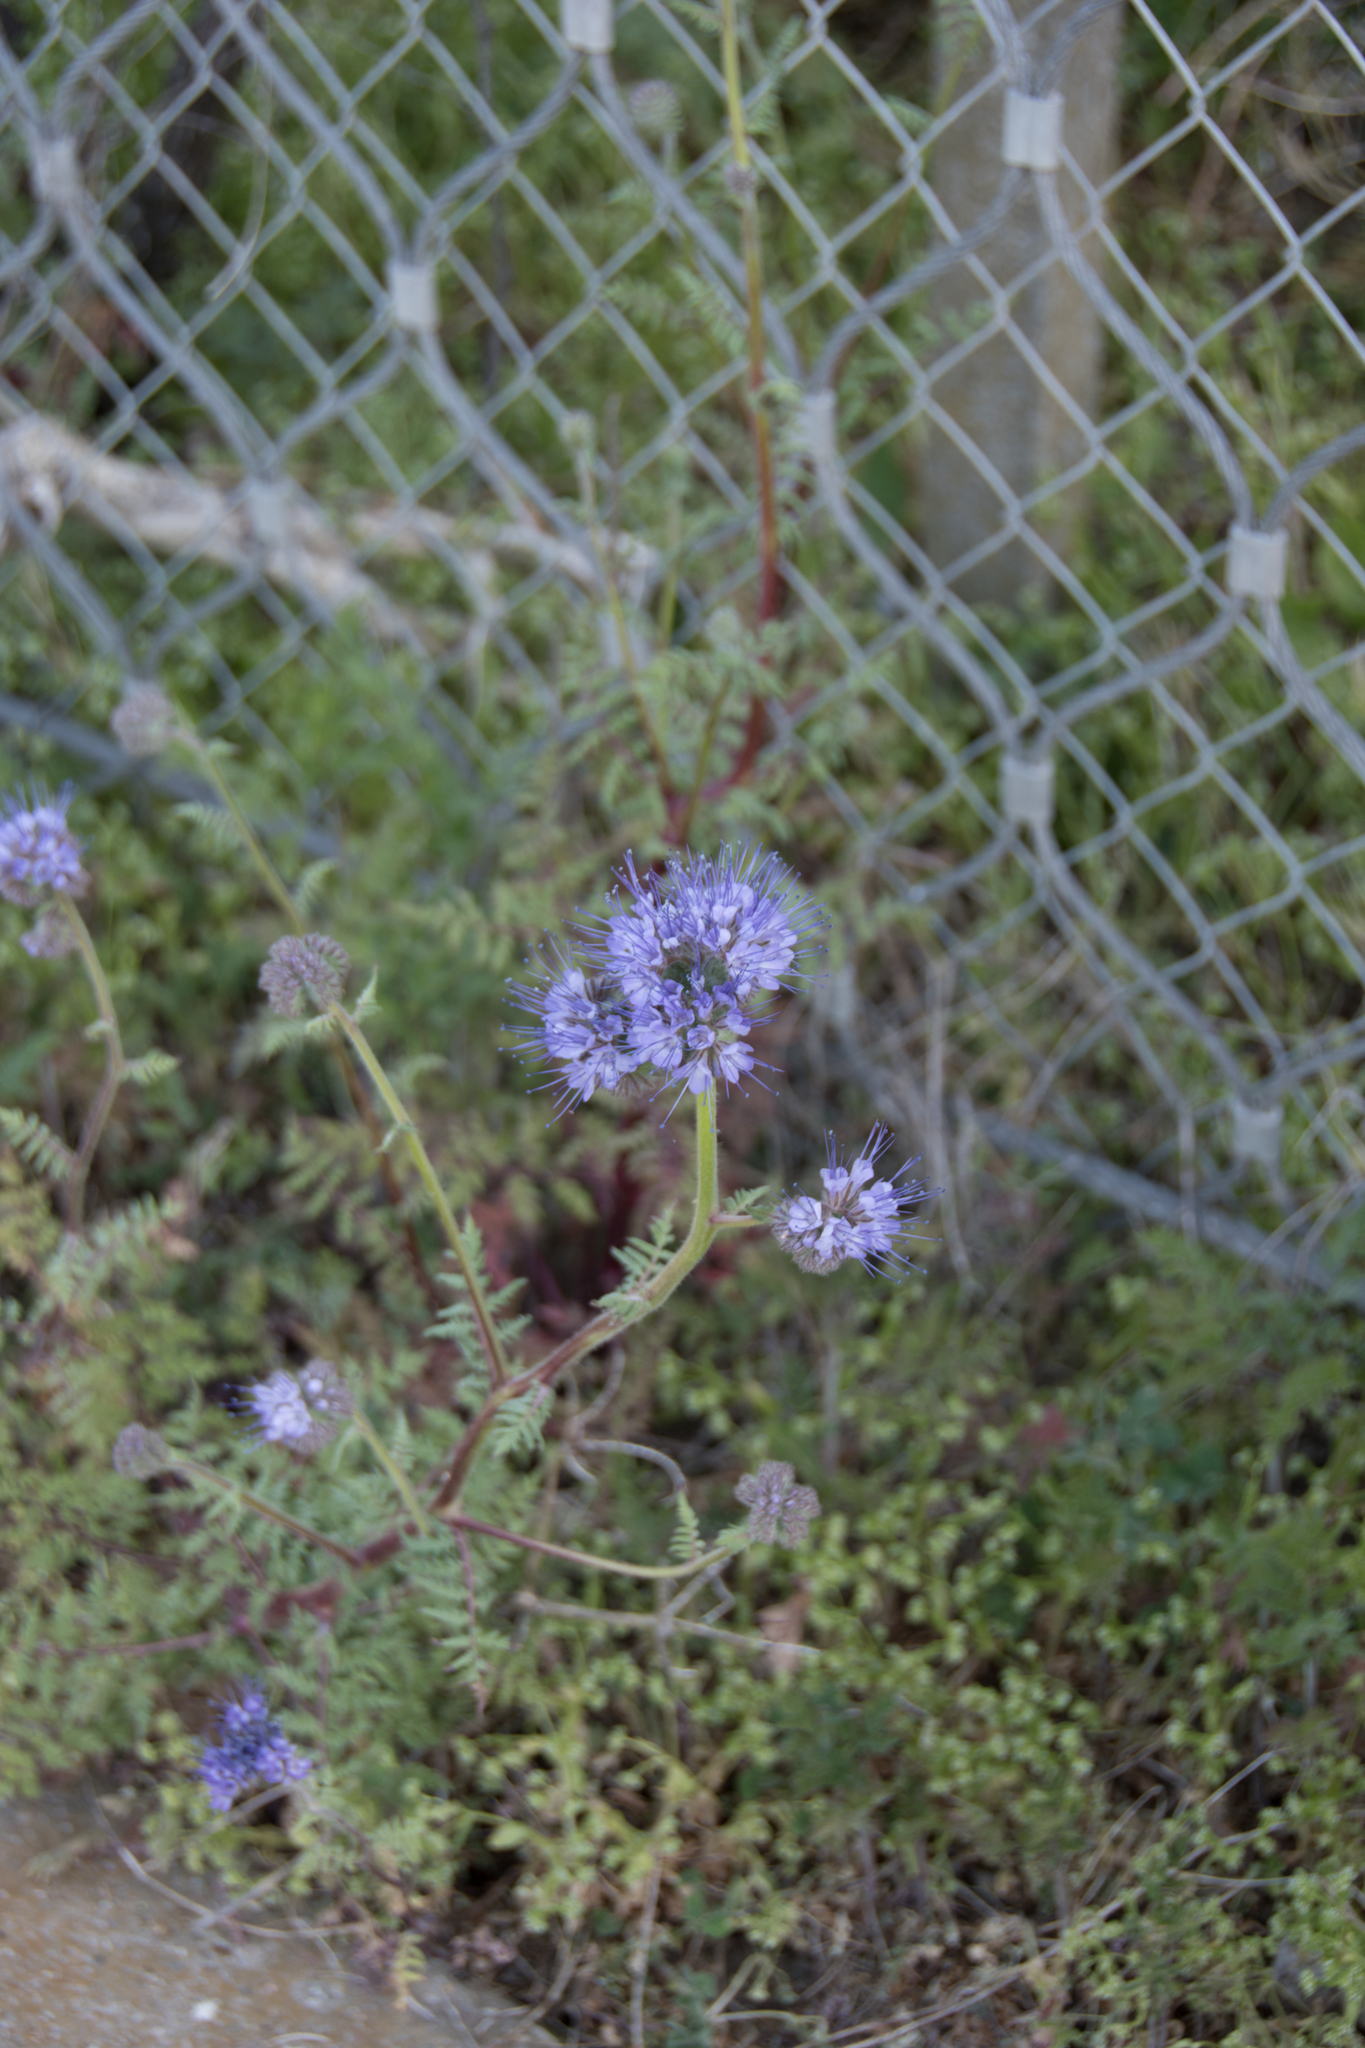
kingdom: Plantae
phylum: Tracheophyta
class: Magnoliopsida
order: Boraginales
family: Hydrophyllaceae
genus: Phacelia
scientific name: Phacelia tanacetifolia
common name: Phacelia
